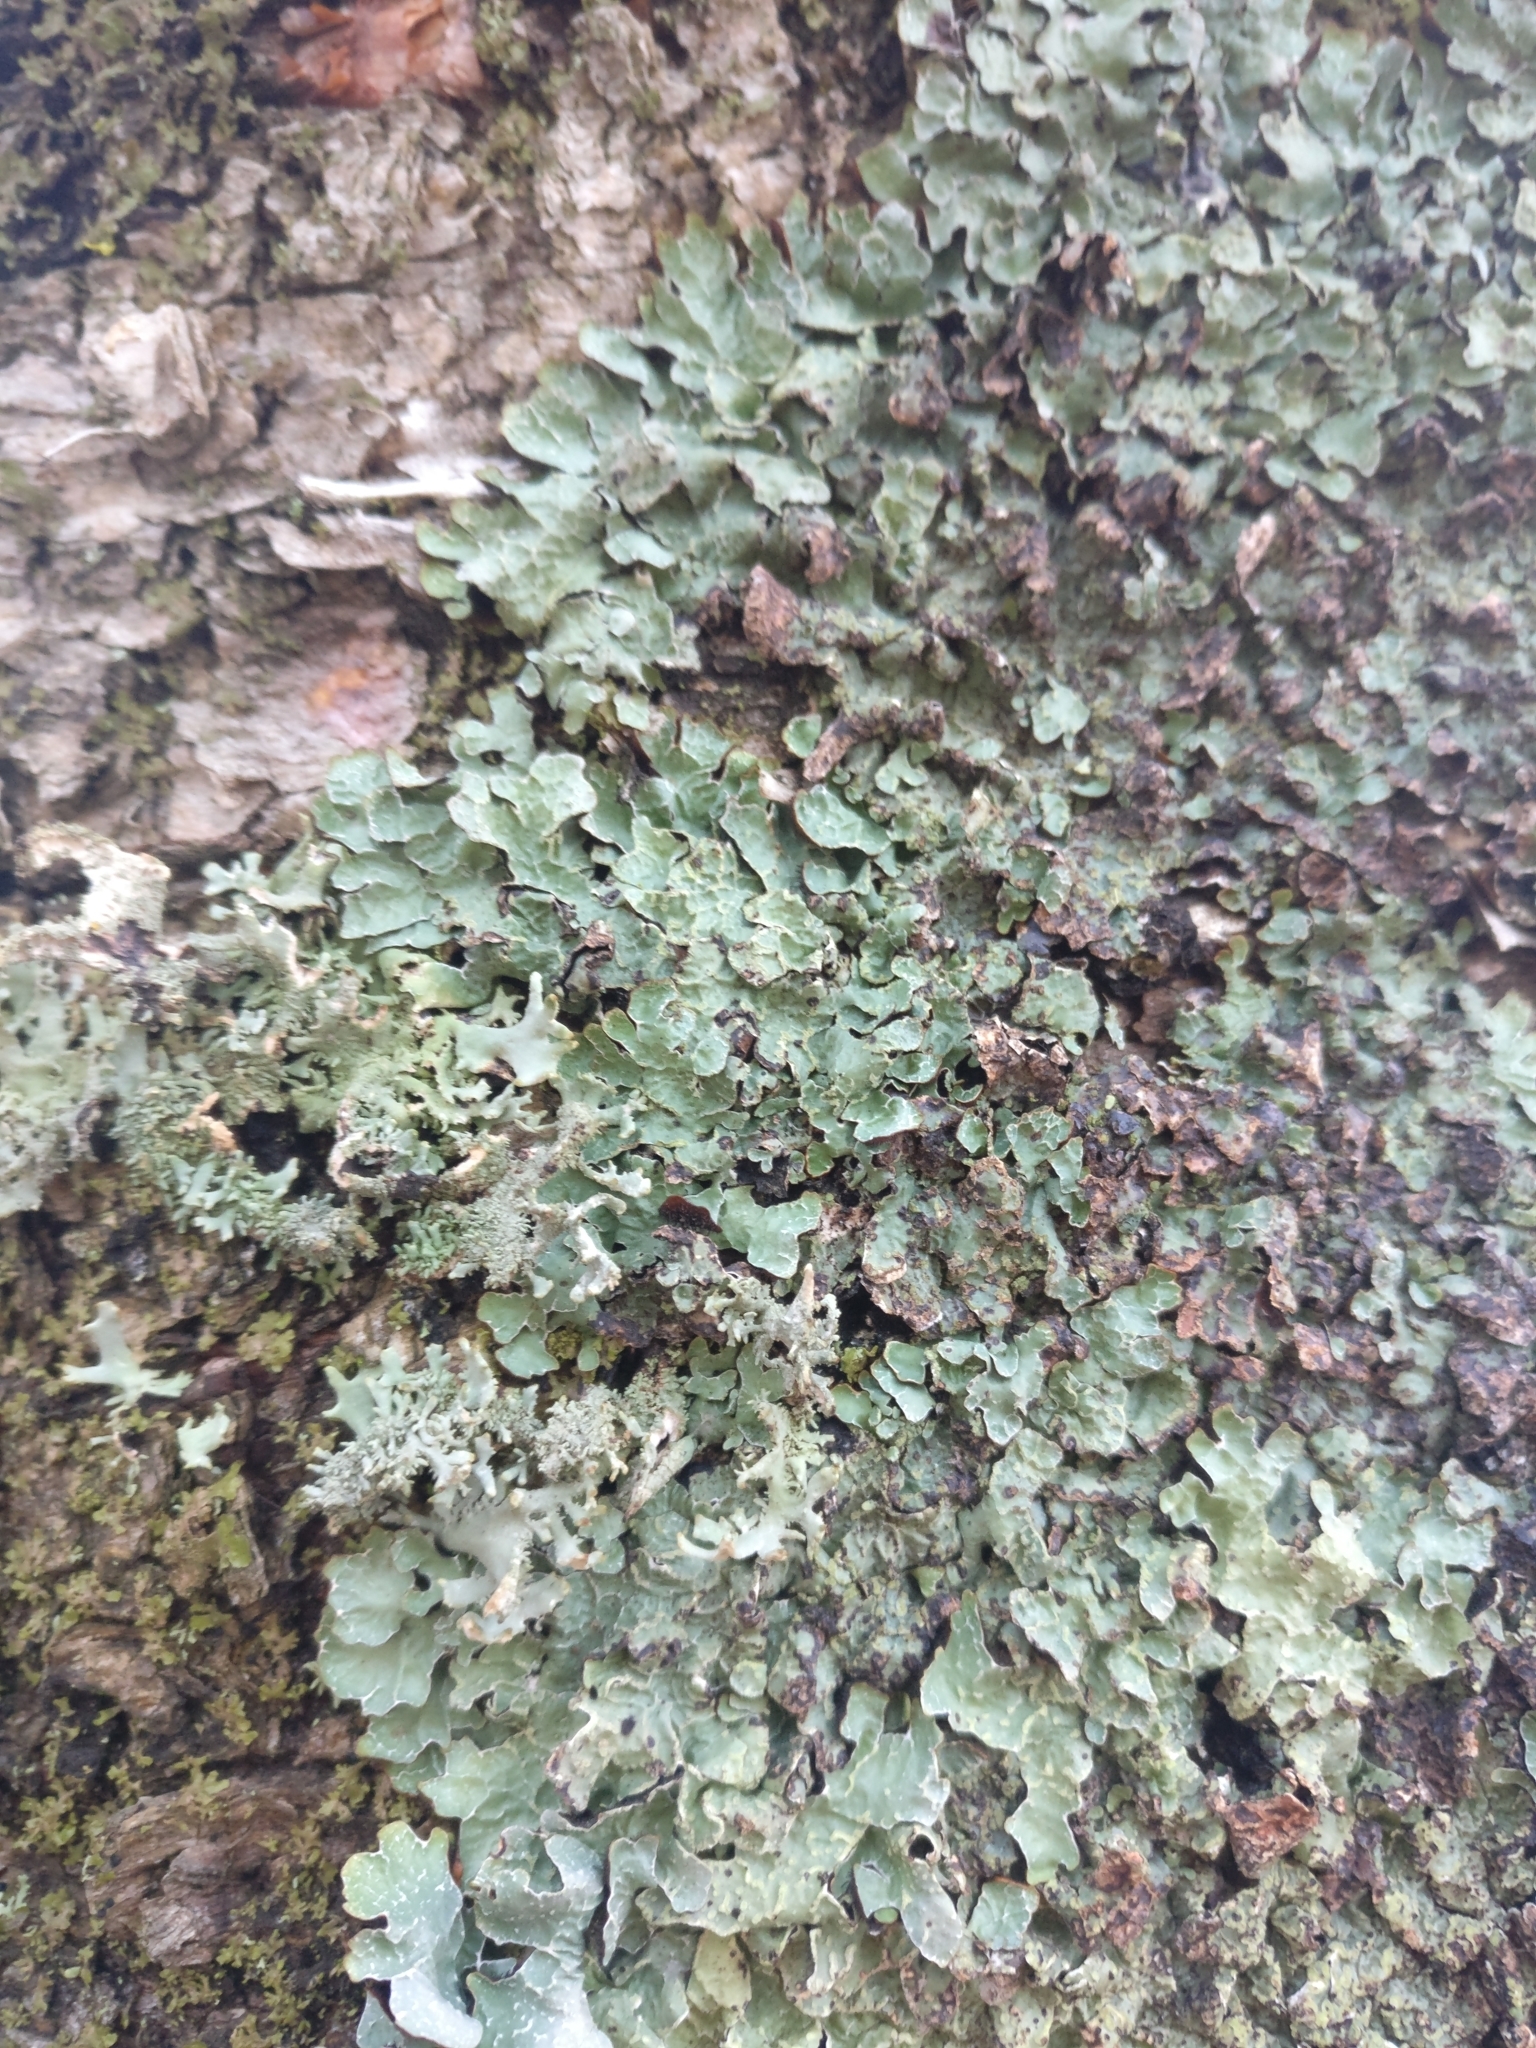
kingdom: Fungi
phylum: Ascomycota
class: Lecanoromycetes
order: Lecanorales
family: Parmeliaceae
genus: Parmelia
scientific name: Parmelia sulcata
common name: Netted shield lichen
